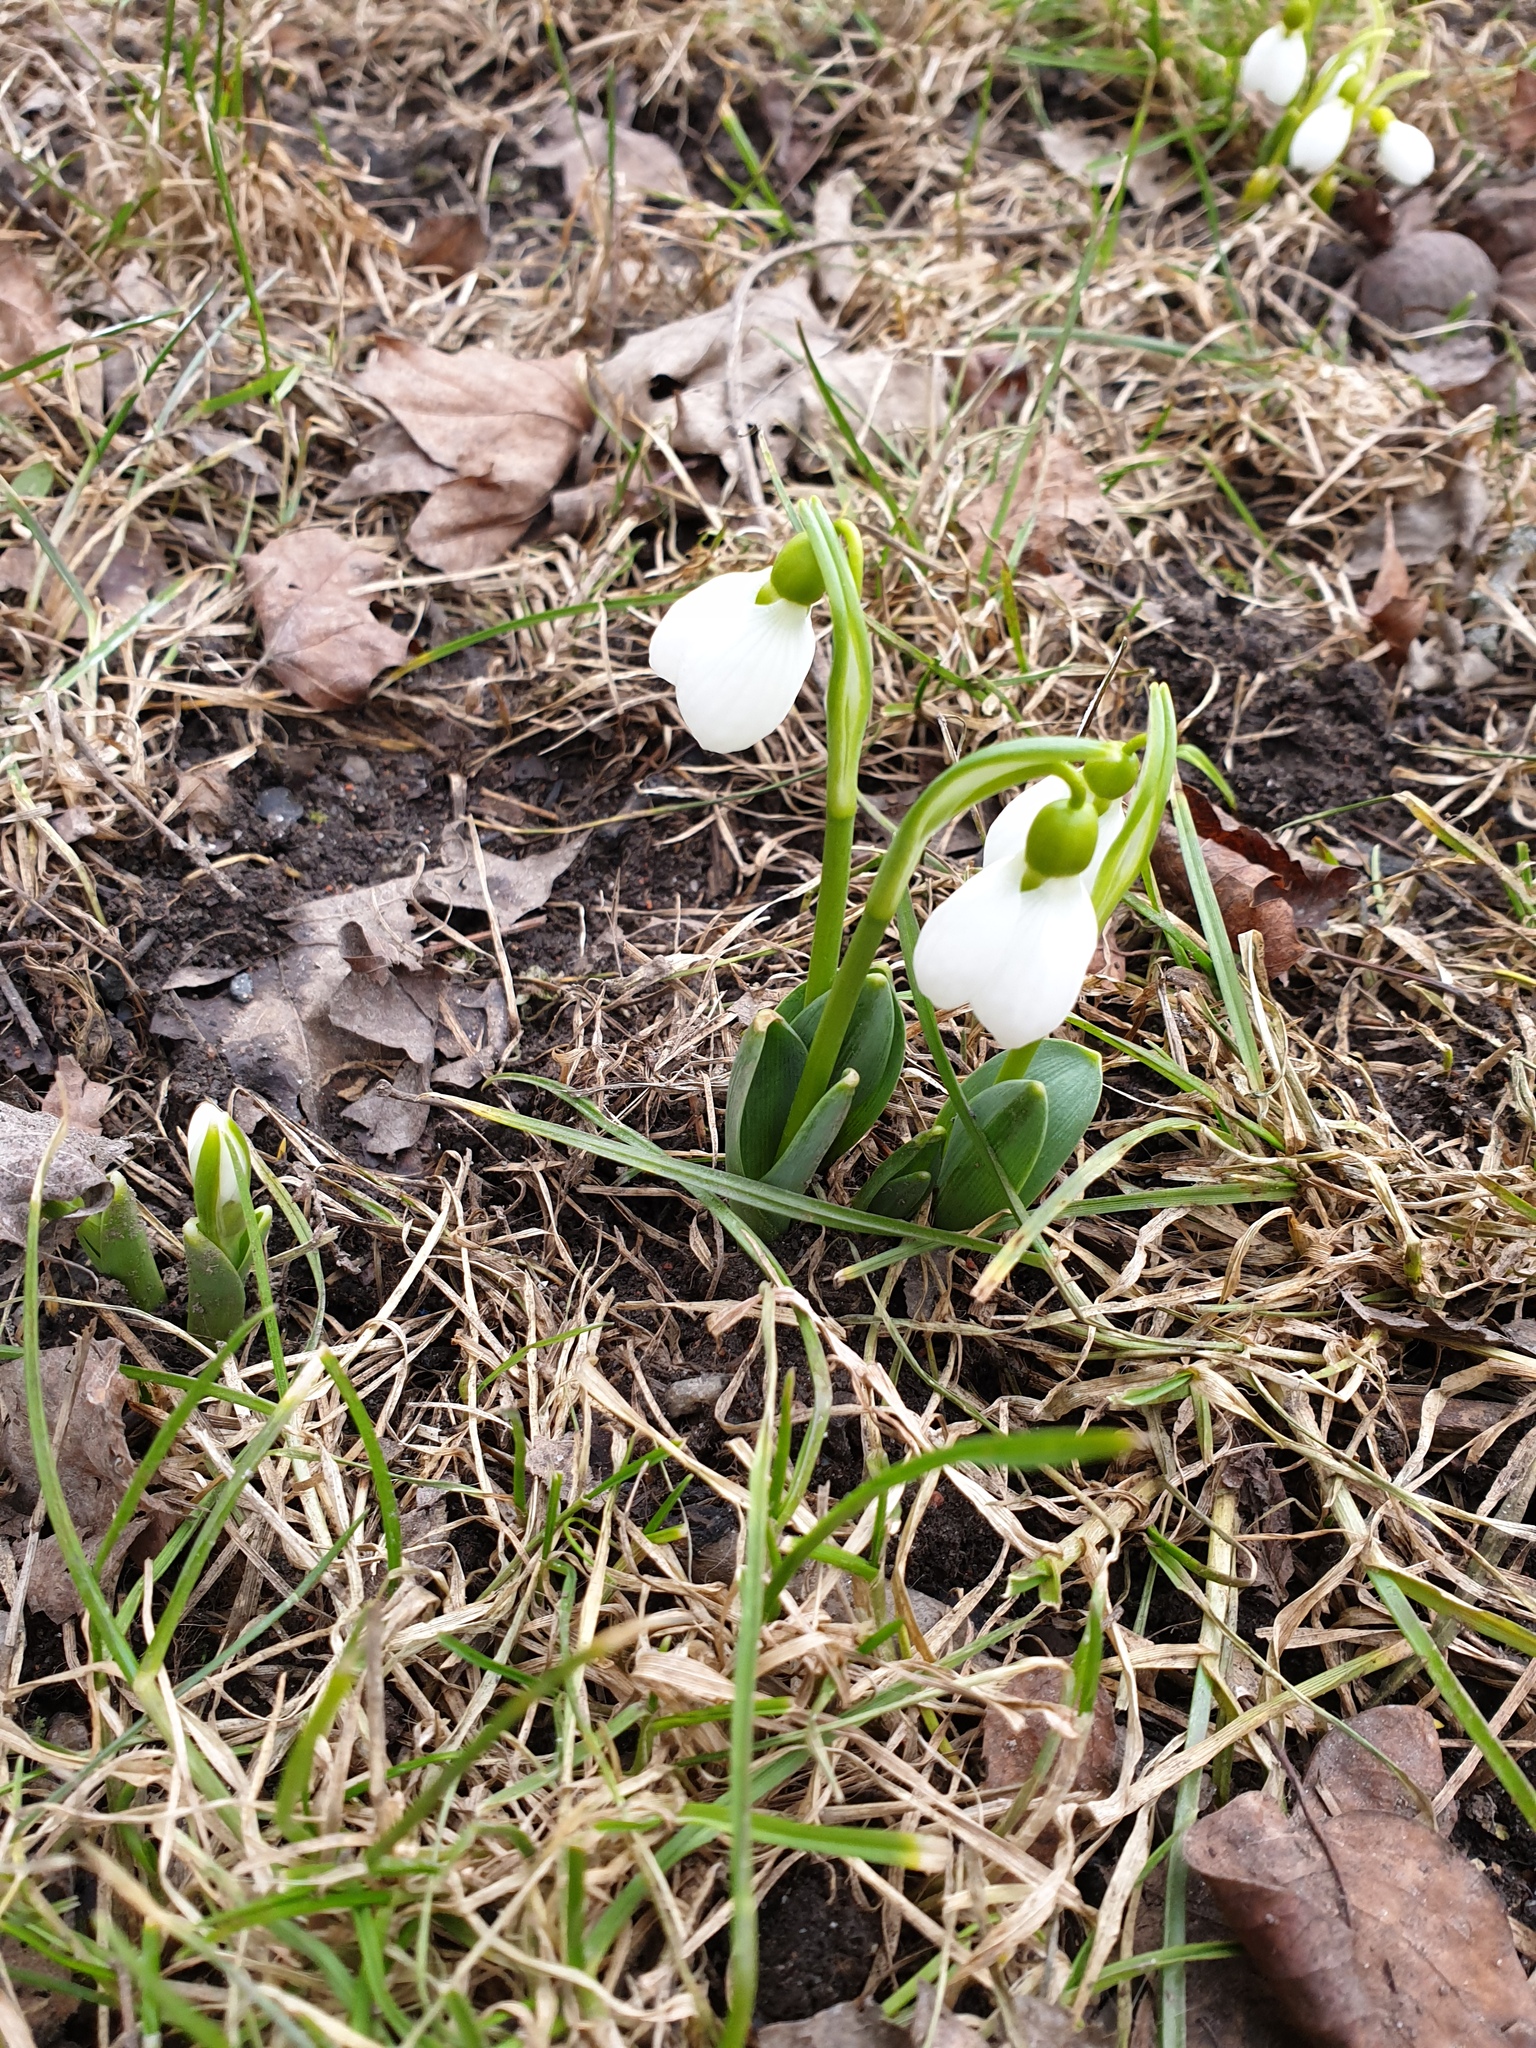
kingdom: Plantae
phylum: Tracheophyta
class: Liliopsida
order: Asparagales
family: Amaryllidaceae
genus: Galanthus
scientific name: Galanthus elwesii
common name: Greater snowdrop
